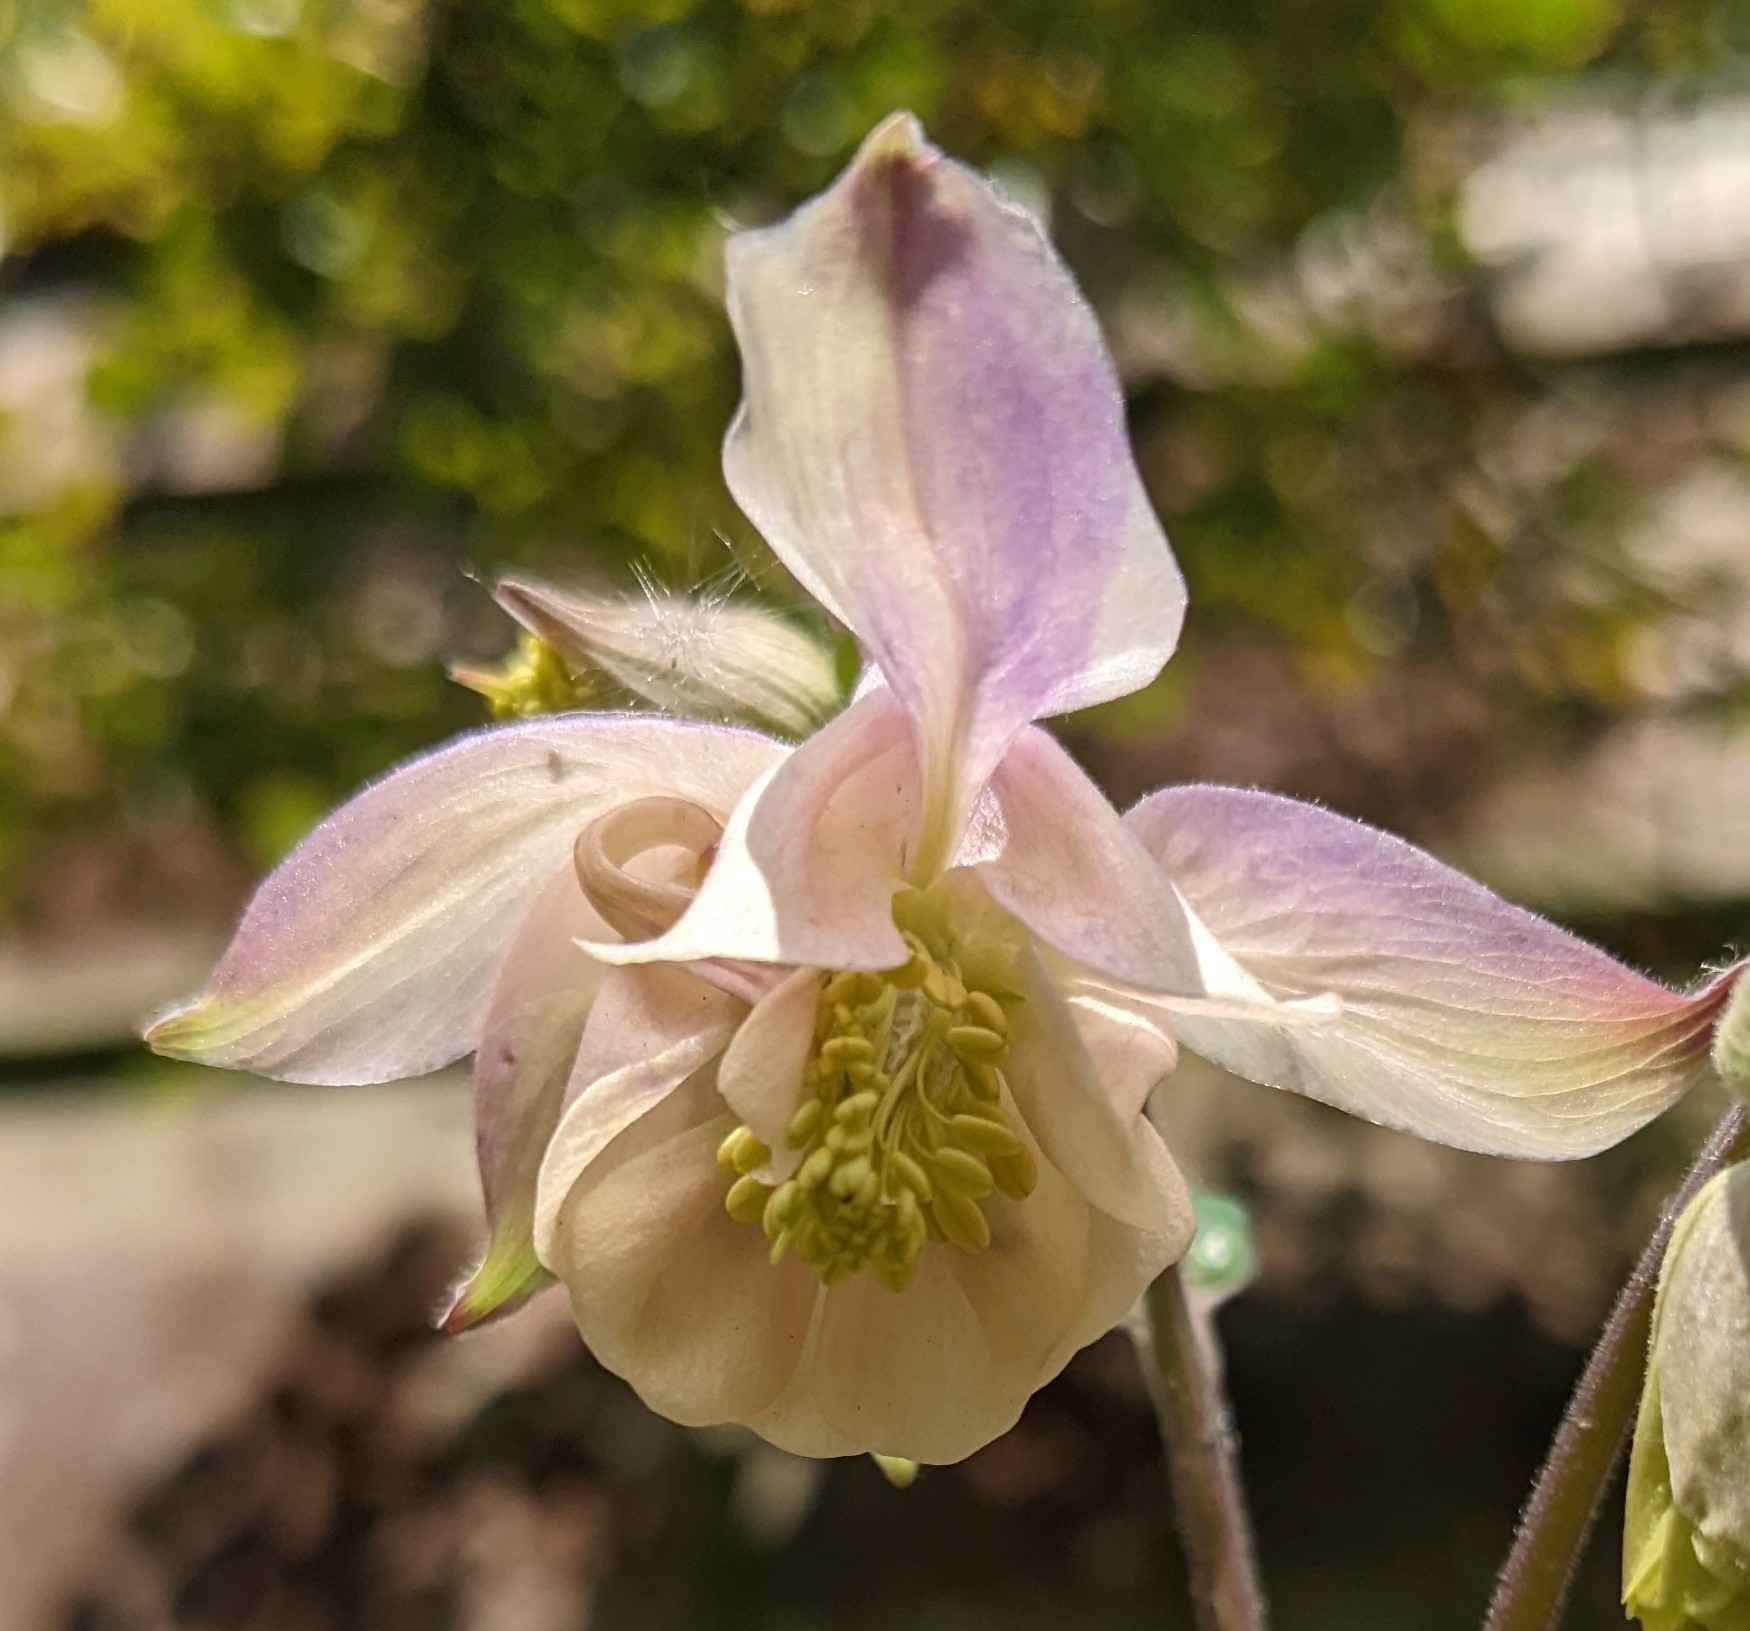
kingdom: Plantae
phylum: Tracheophyta
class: Magnoliopsida
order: Ranunculales
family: Ranunculaceae
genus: Aquilegia
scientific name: Aquilegia vulgaris
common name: Columbine
